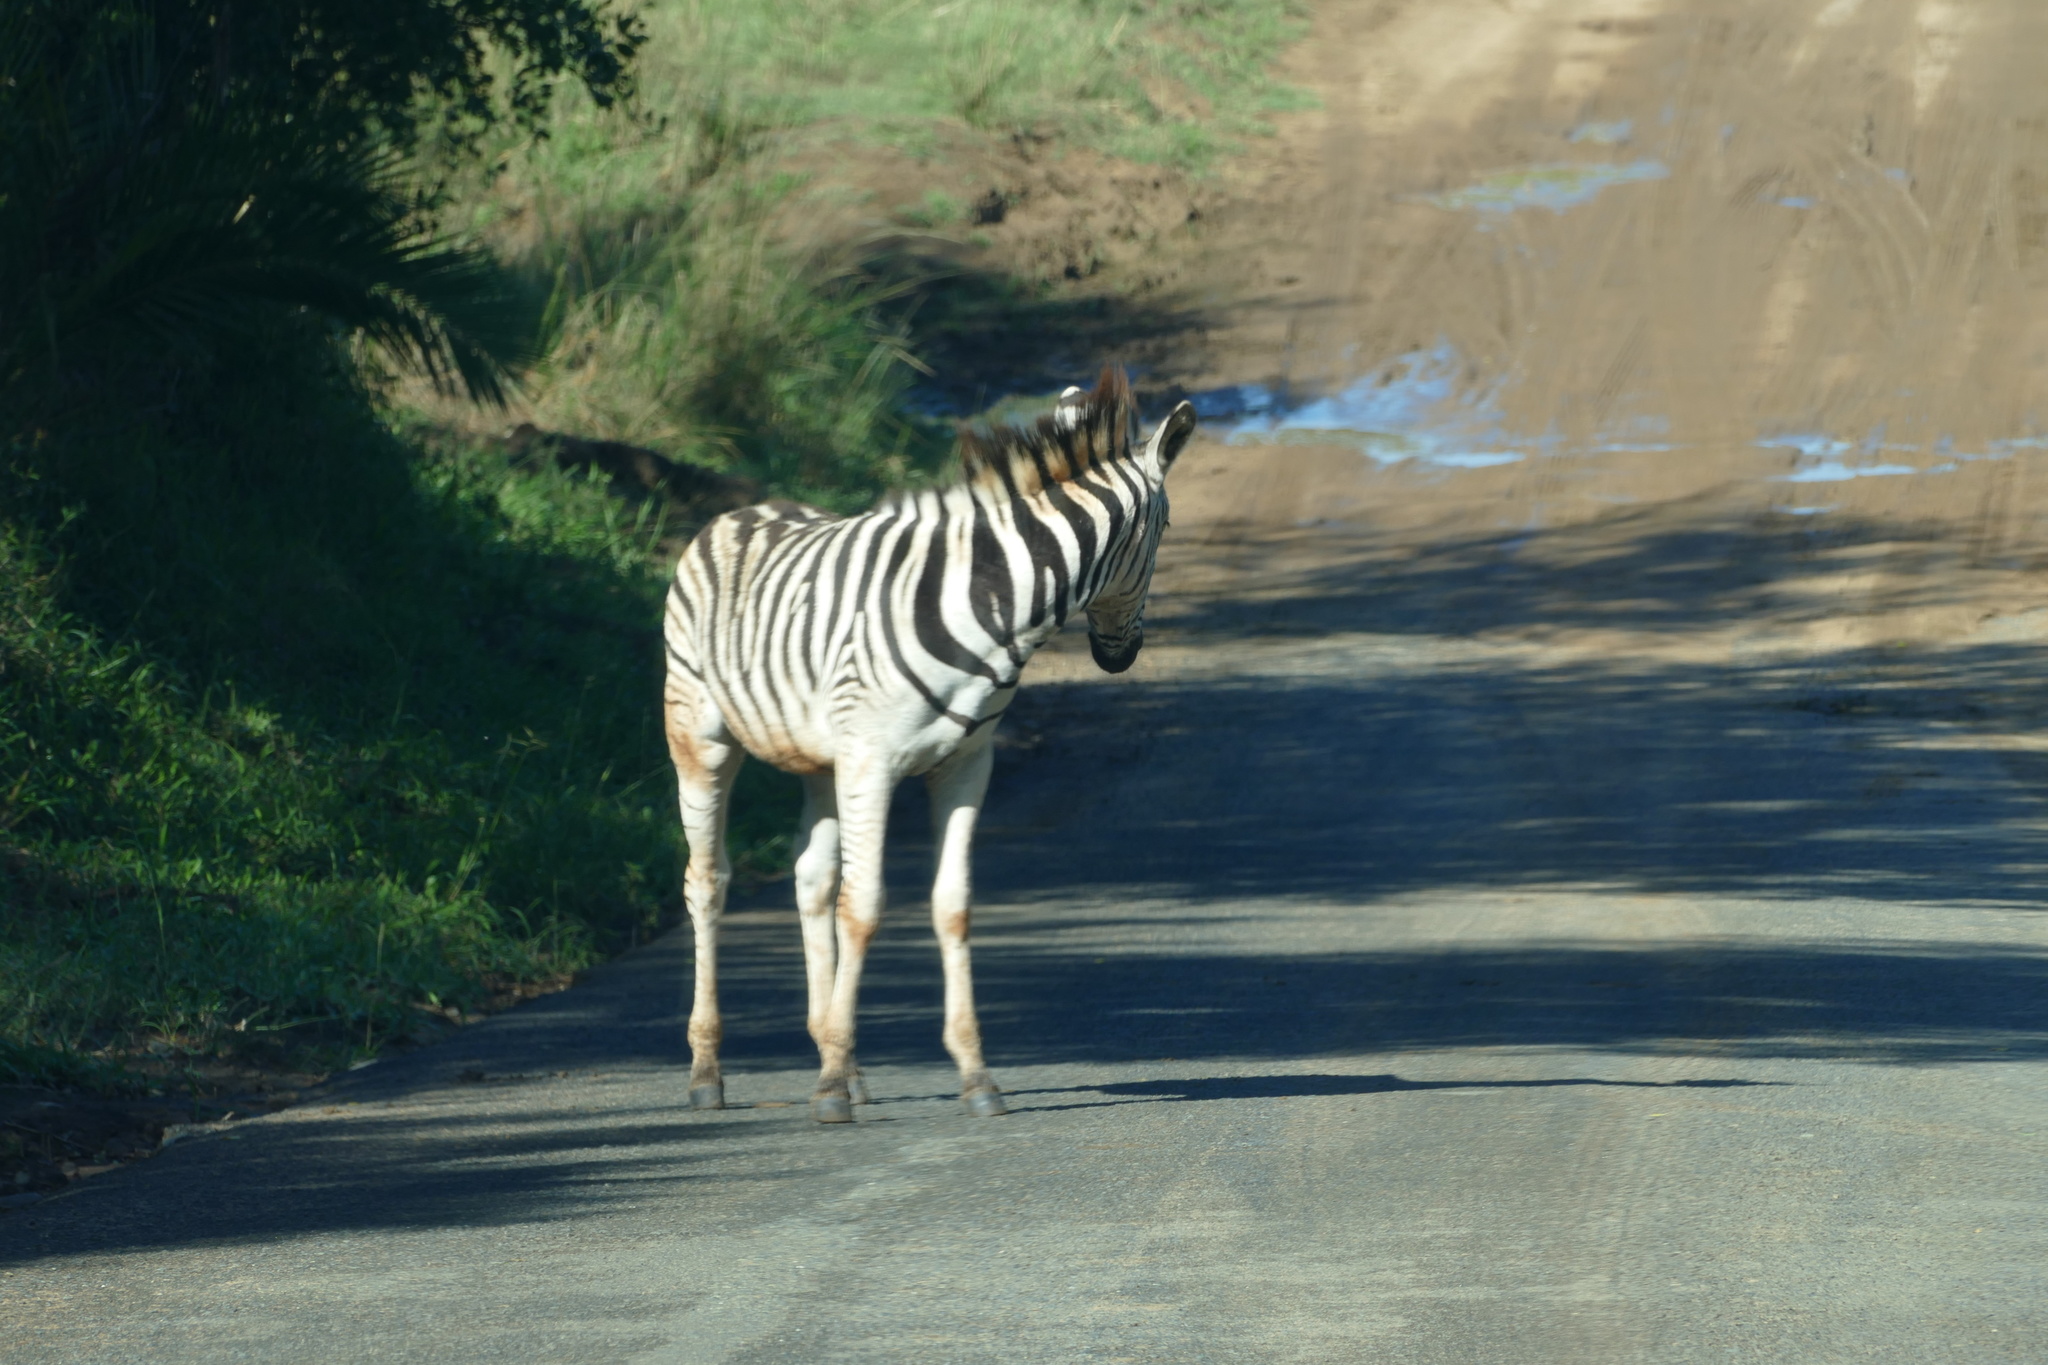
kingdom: Animalia
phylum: Chordata
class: Mammalia
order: Perissodactyla
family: Equidae
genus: Equus
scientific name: Equus quagga
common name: Plains zebra
